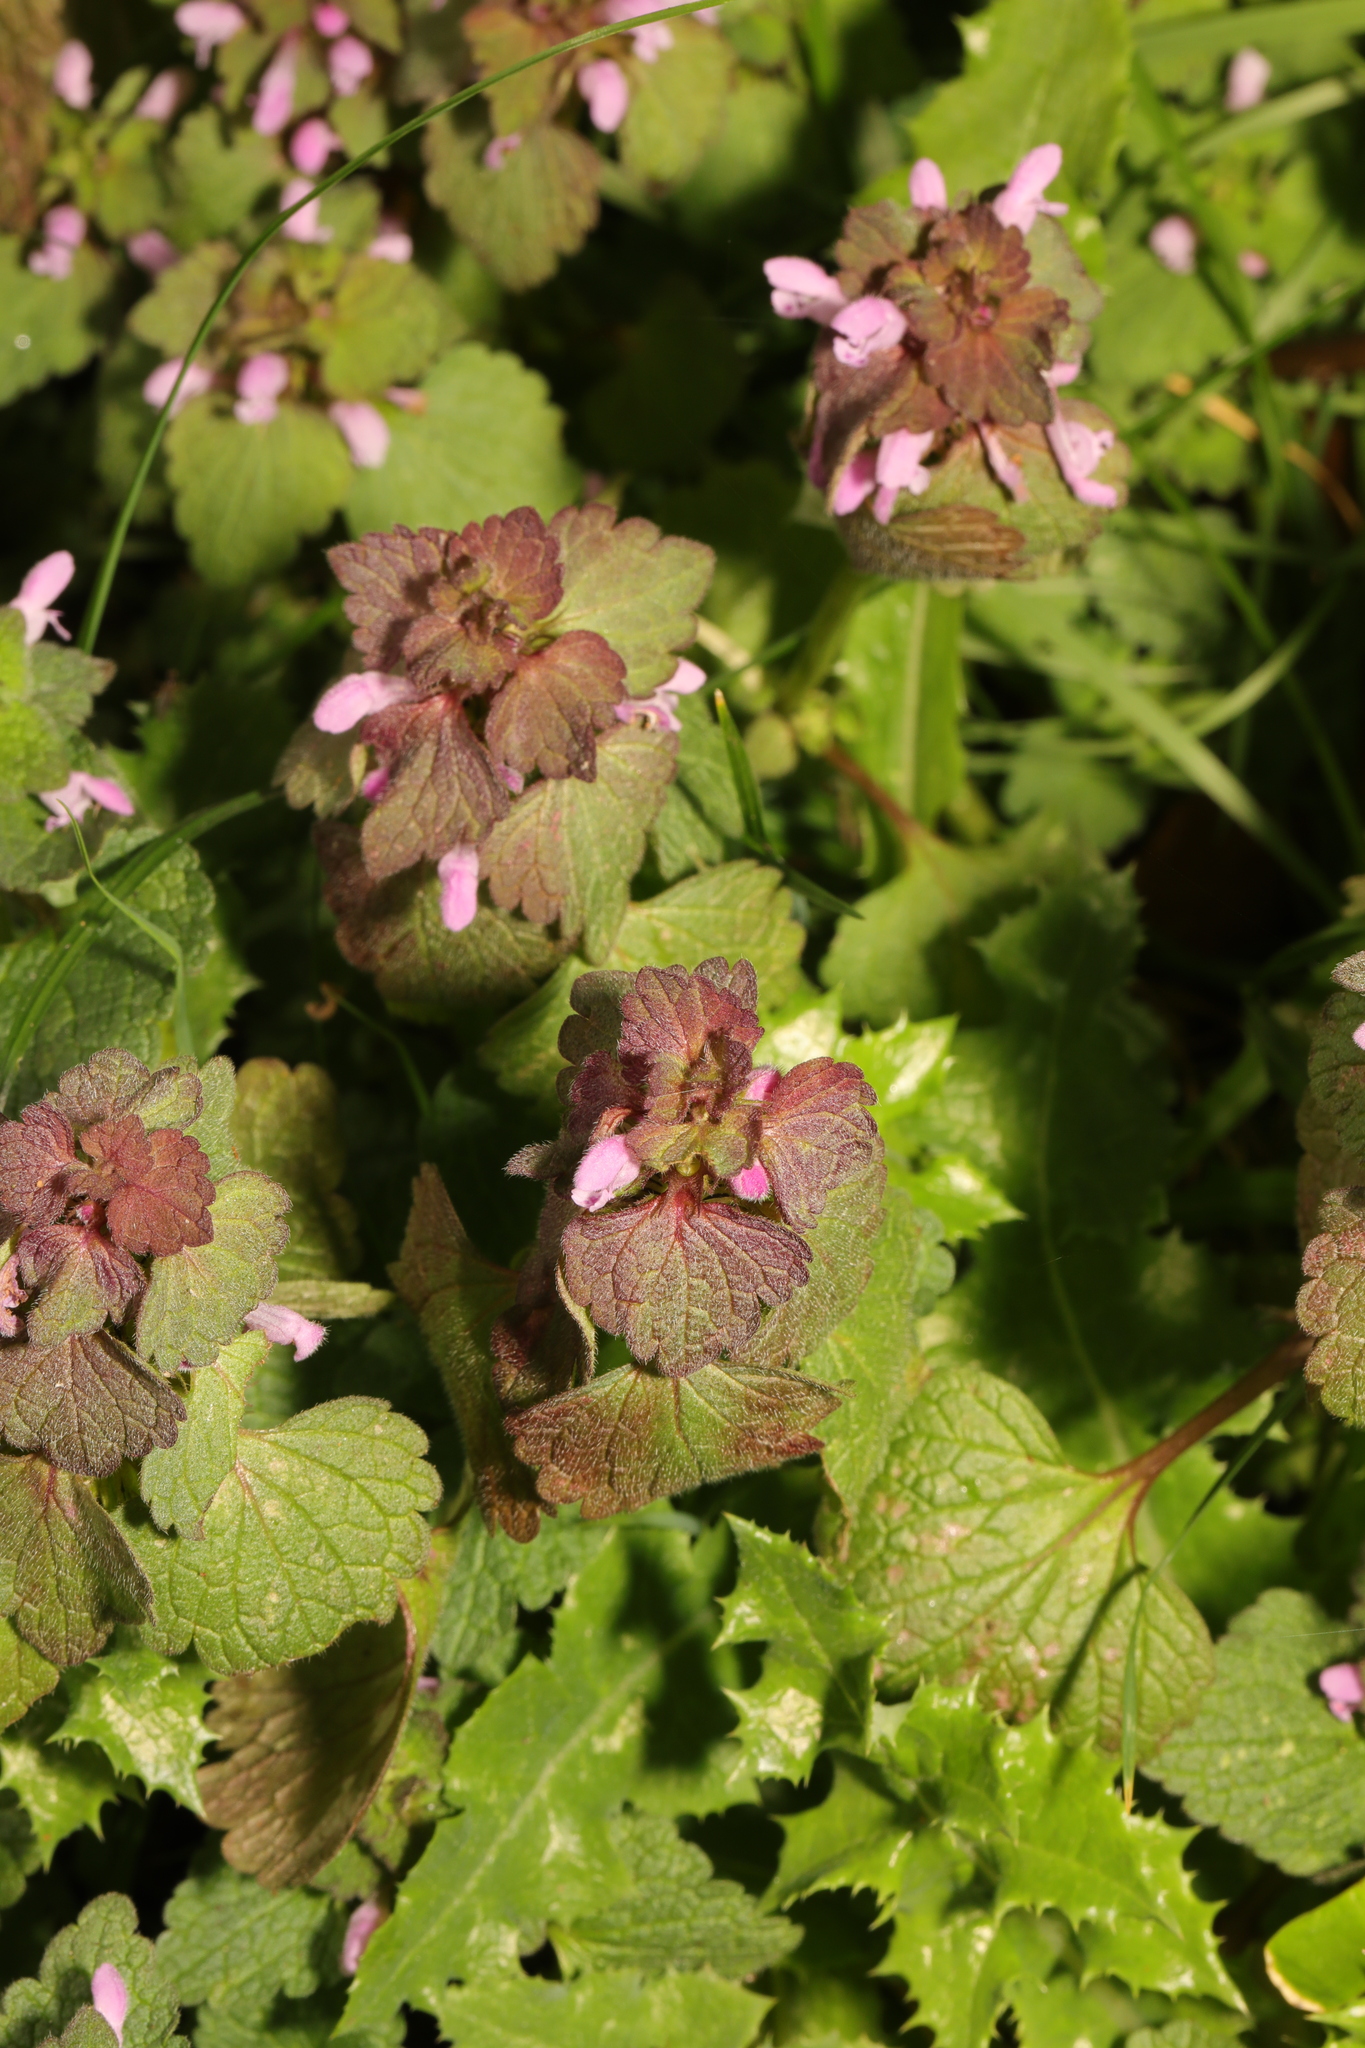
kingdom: Plantae
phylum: Tracheophyta
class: Magnoliopsida
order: Lamiales
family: Lamiaceae
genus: Lamium
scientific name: Lamium purpureum
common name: Red dead-nettle
